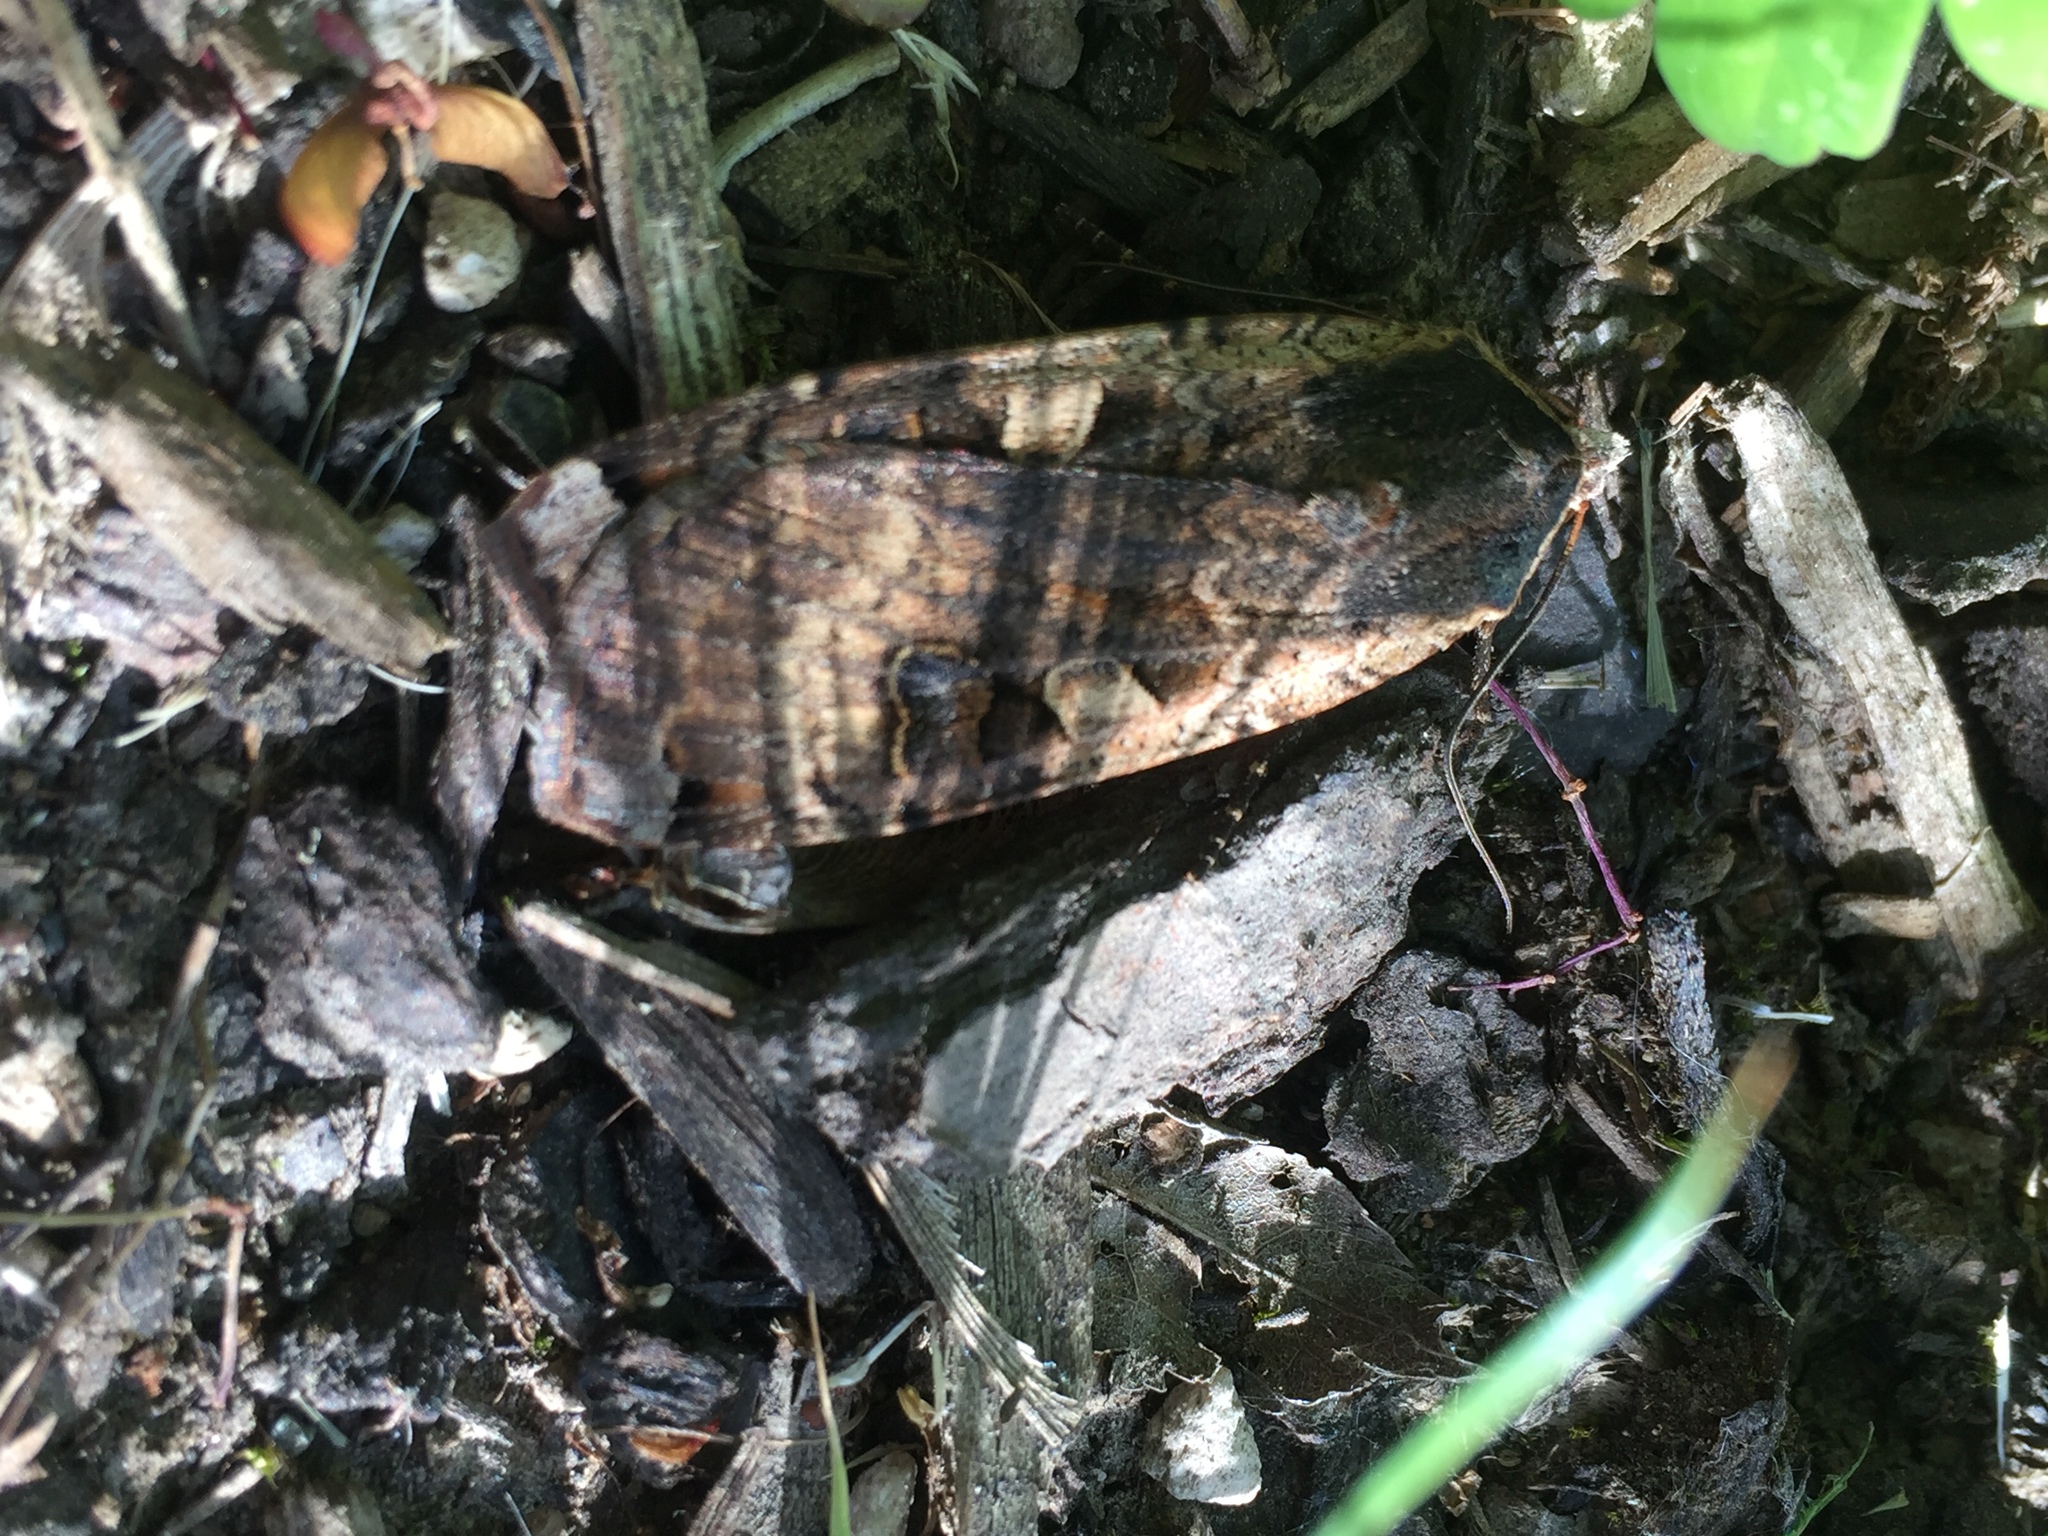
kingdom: Animalia
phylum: Arthropoda
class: Insecta
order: Lepidoptera
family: Noctuidae
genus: Noctua
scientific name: Noctua pronuba
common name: Large yellow underwing
